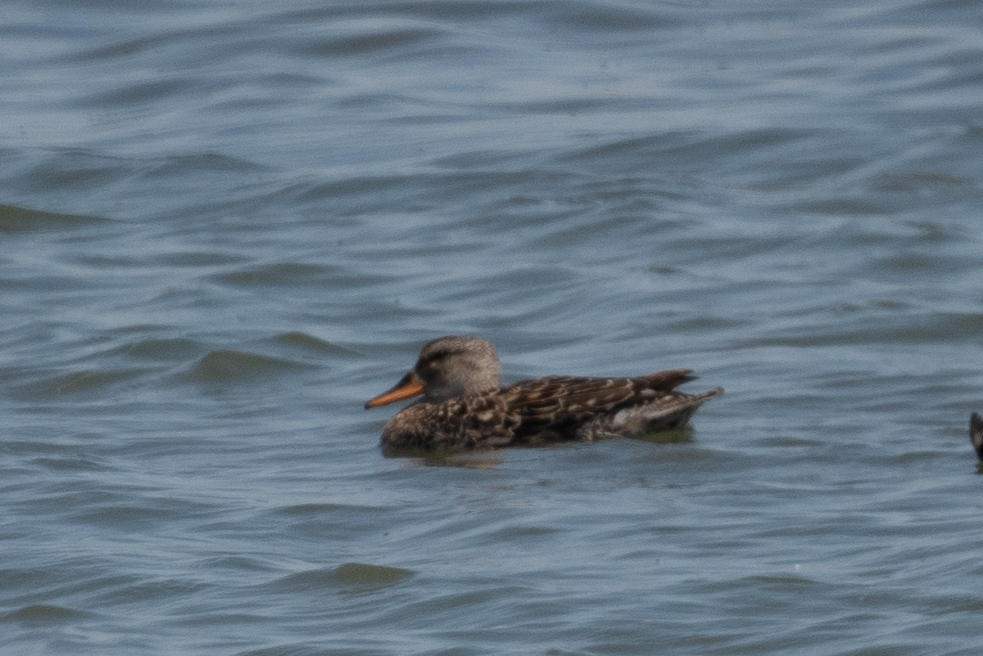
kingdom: Animalia
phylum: Chordata
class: Aves
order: Anseriformes
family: Anatidae
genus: Mareca
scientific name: Mareca strepera
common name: Gadwall
